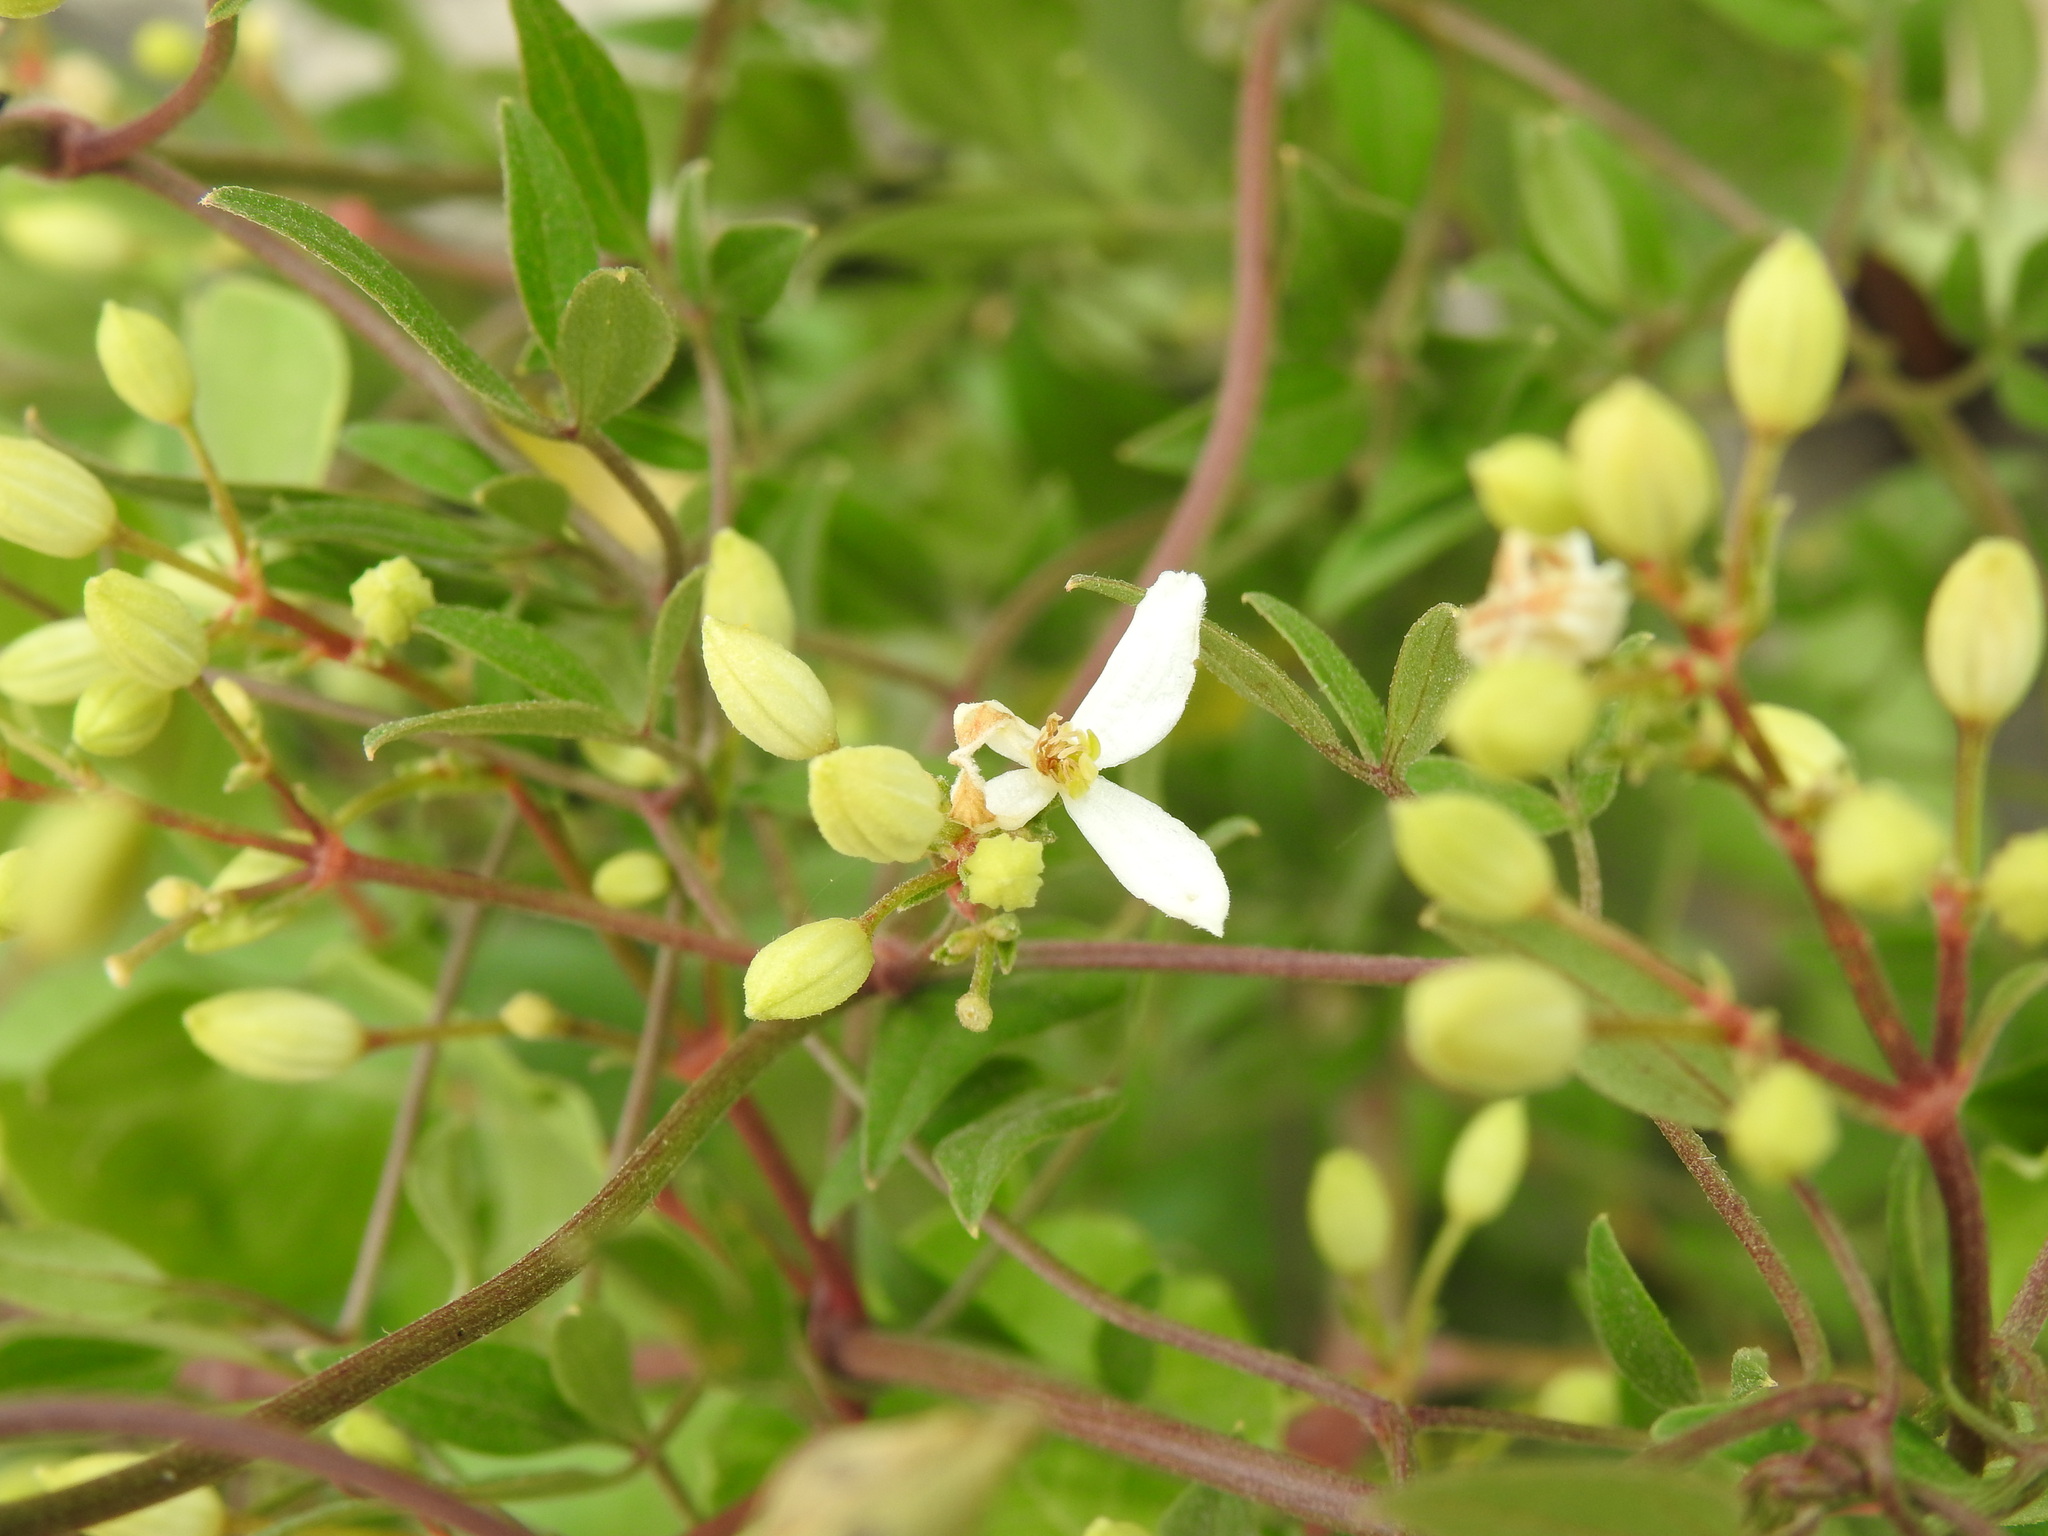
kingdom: Plantae
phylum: Tracheophyta
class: Magnoliopsida
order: Ranunculales
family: Ranunculaceae
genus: Clematis
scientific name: Clematis flammula
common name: Virgin's-bower
